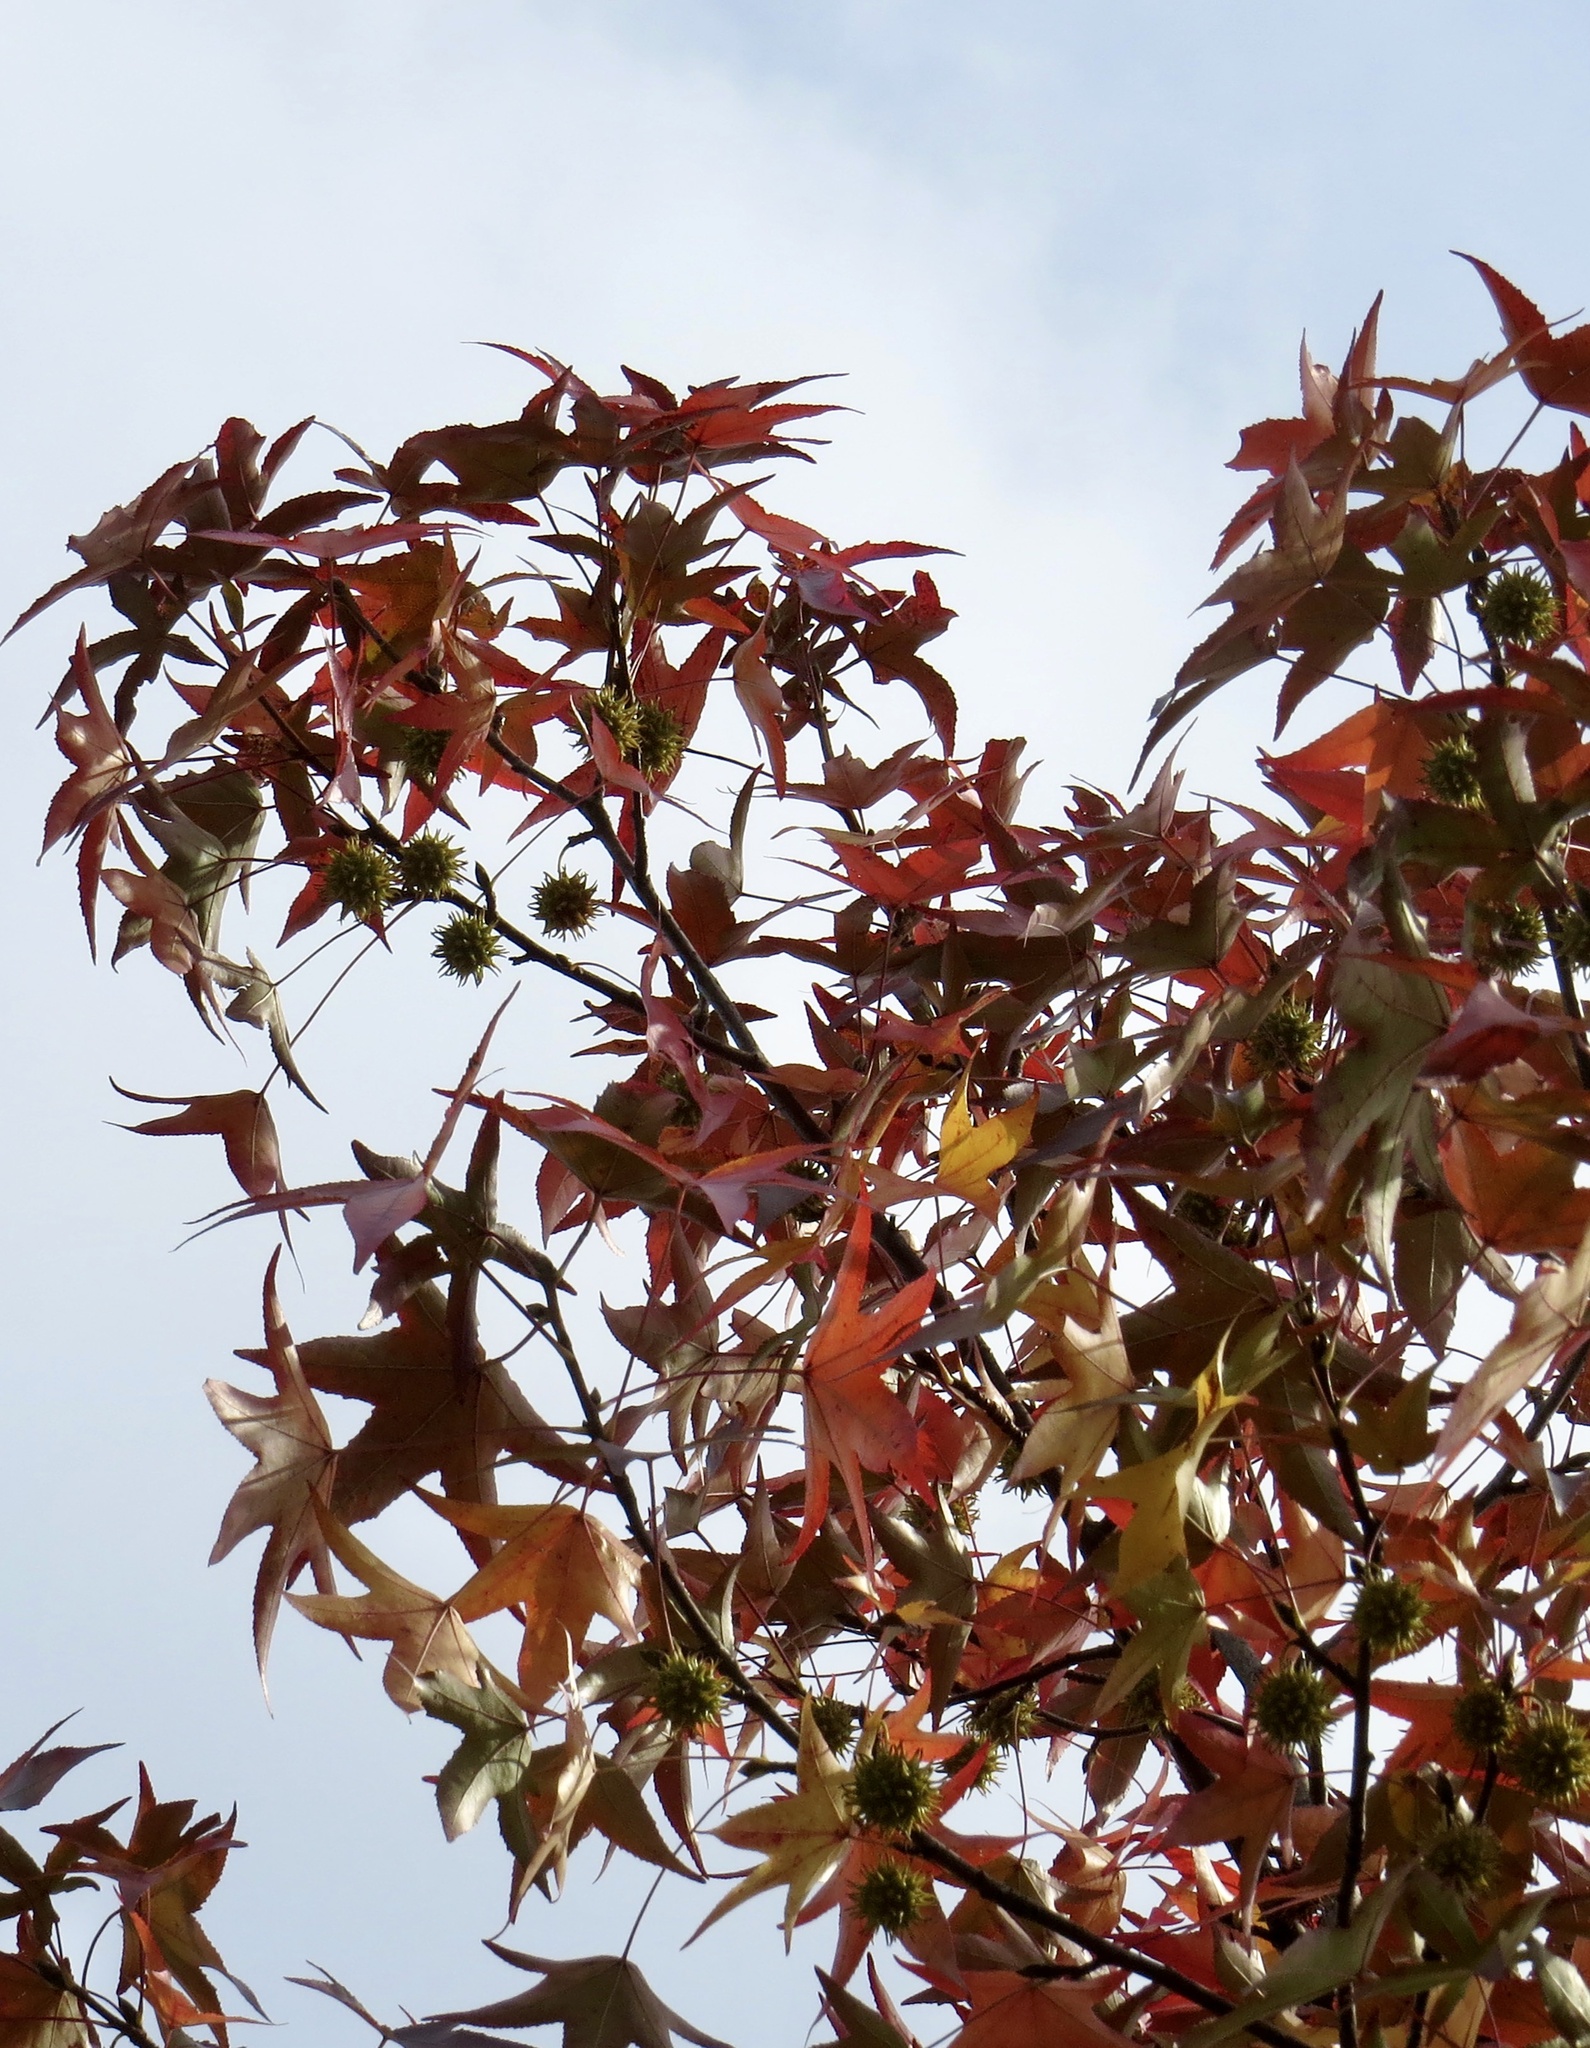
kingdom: Plantae
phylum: Tracheophyta
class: Magnoliopsida
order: Saxifragales
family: Altingiaceae
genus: Liquidambar
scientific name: Liquidambar styraciflua
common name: Sweet gum
